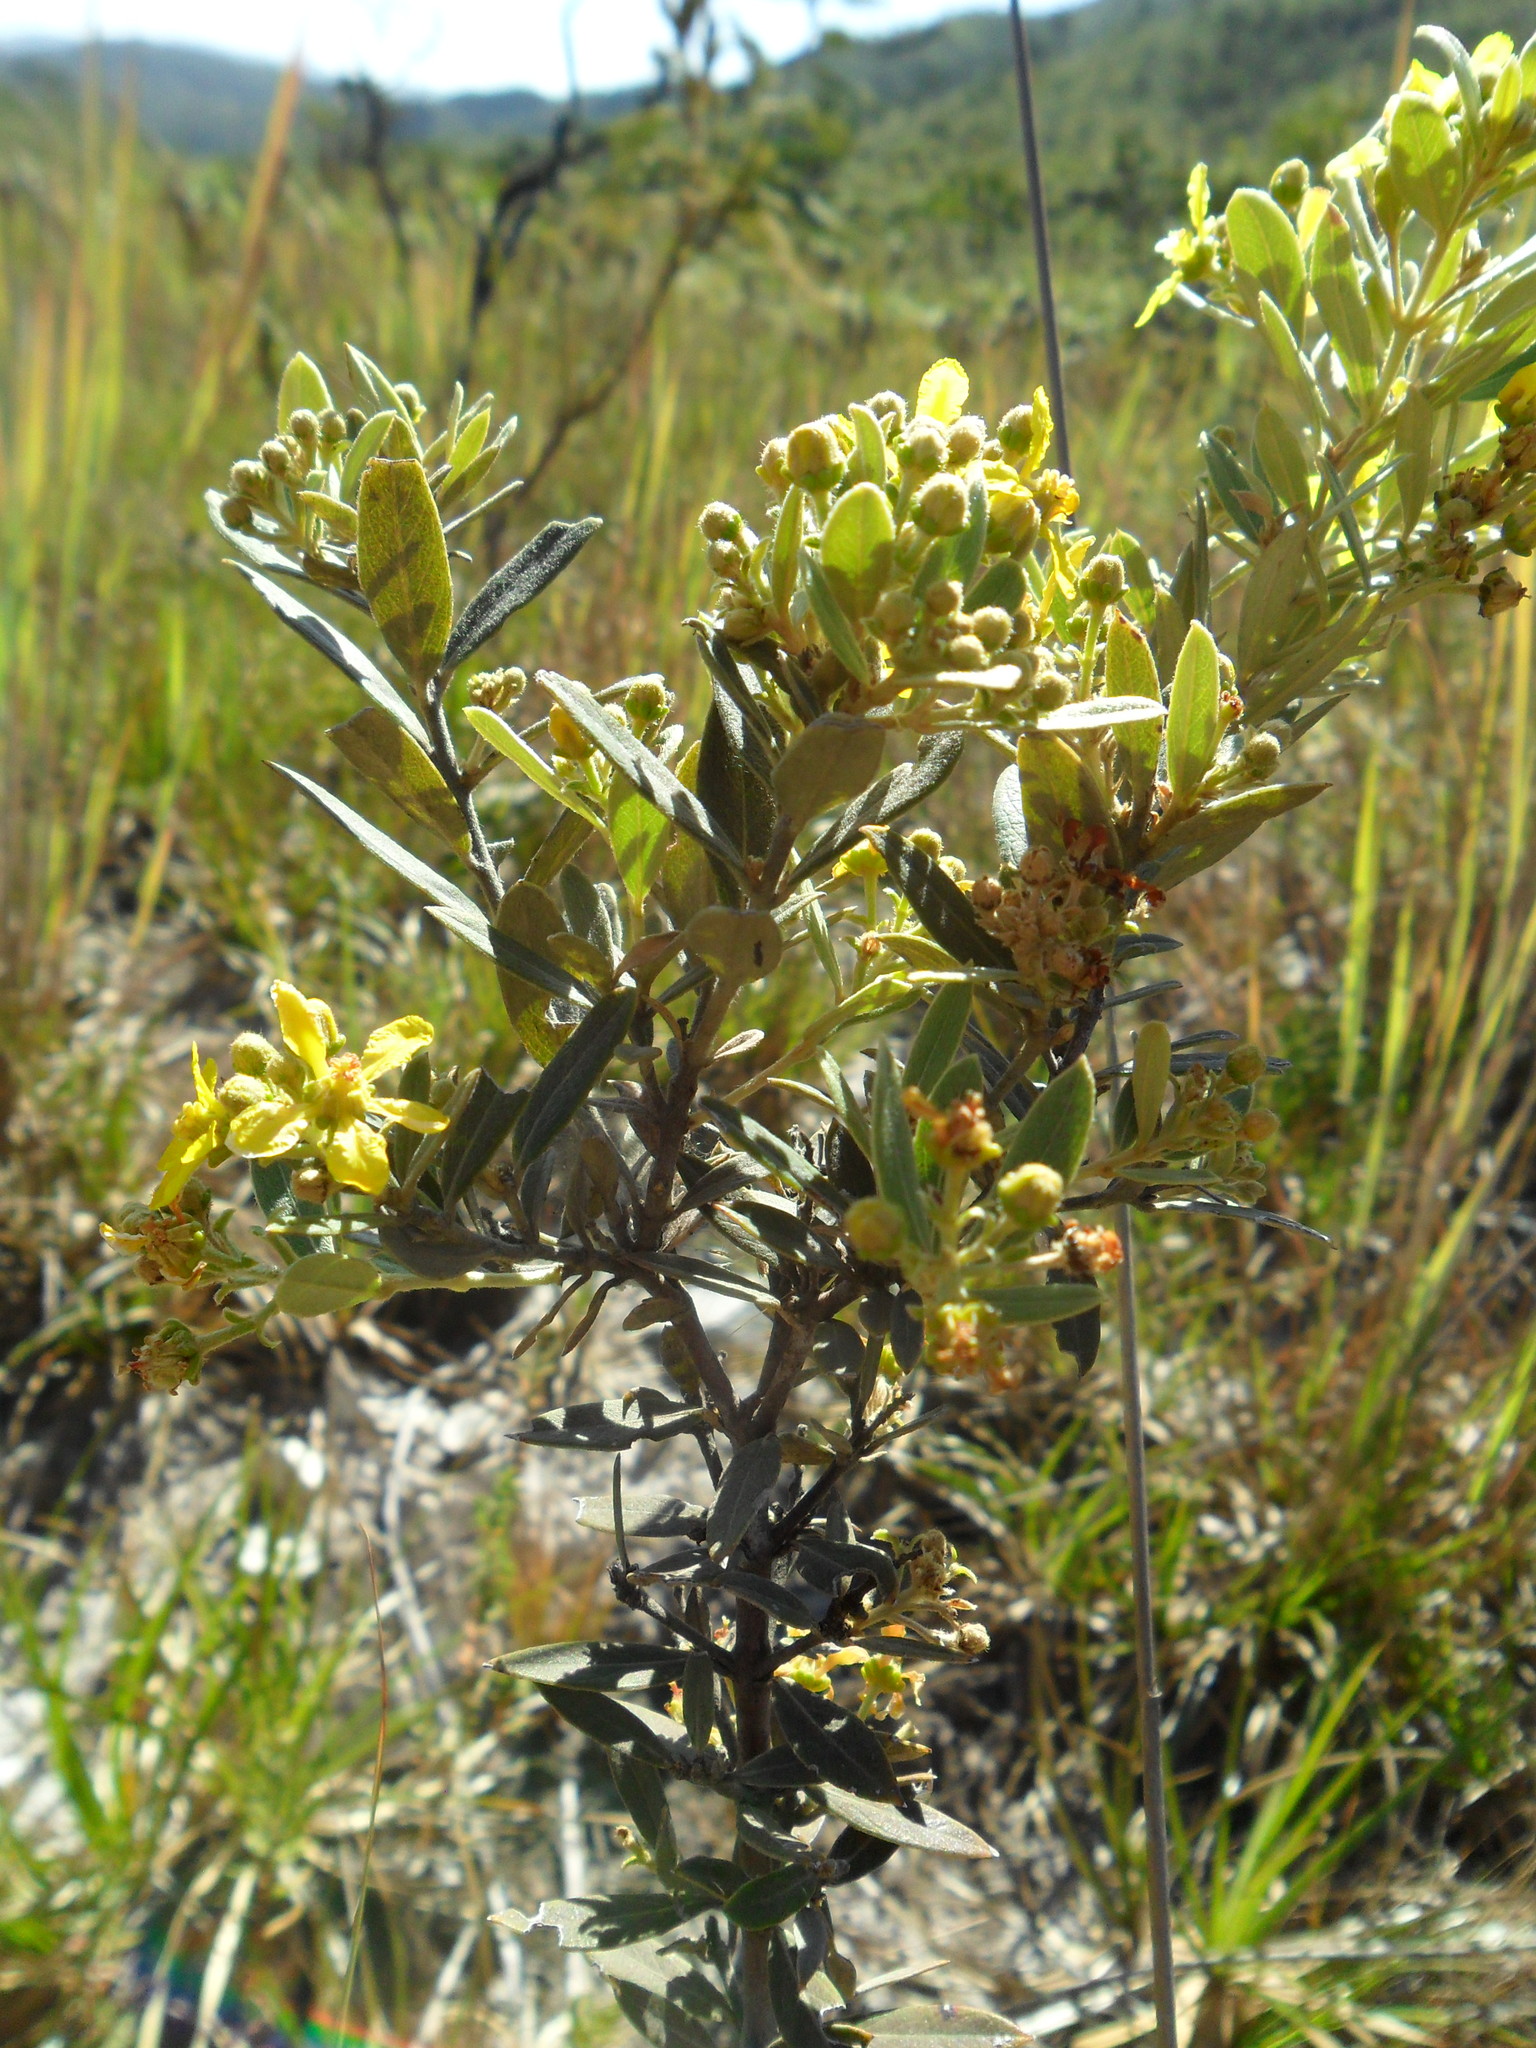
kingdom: Plantae
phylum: Tracheophyta
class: Magnoliopsida
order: Malpighiales
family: Malpighiaceae
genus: Glicophyllum
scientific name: Glicophyllum microphyllum
